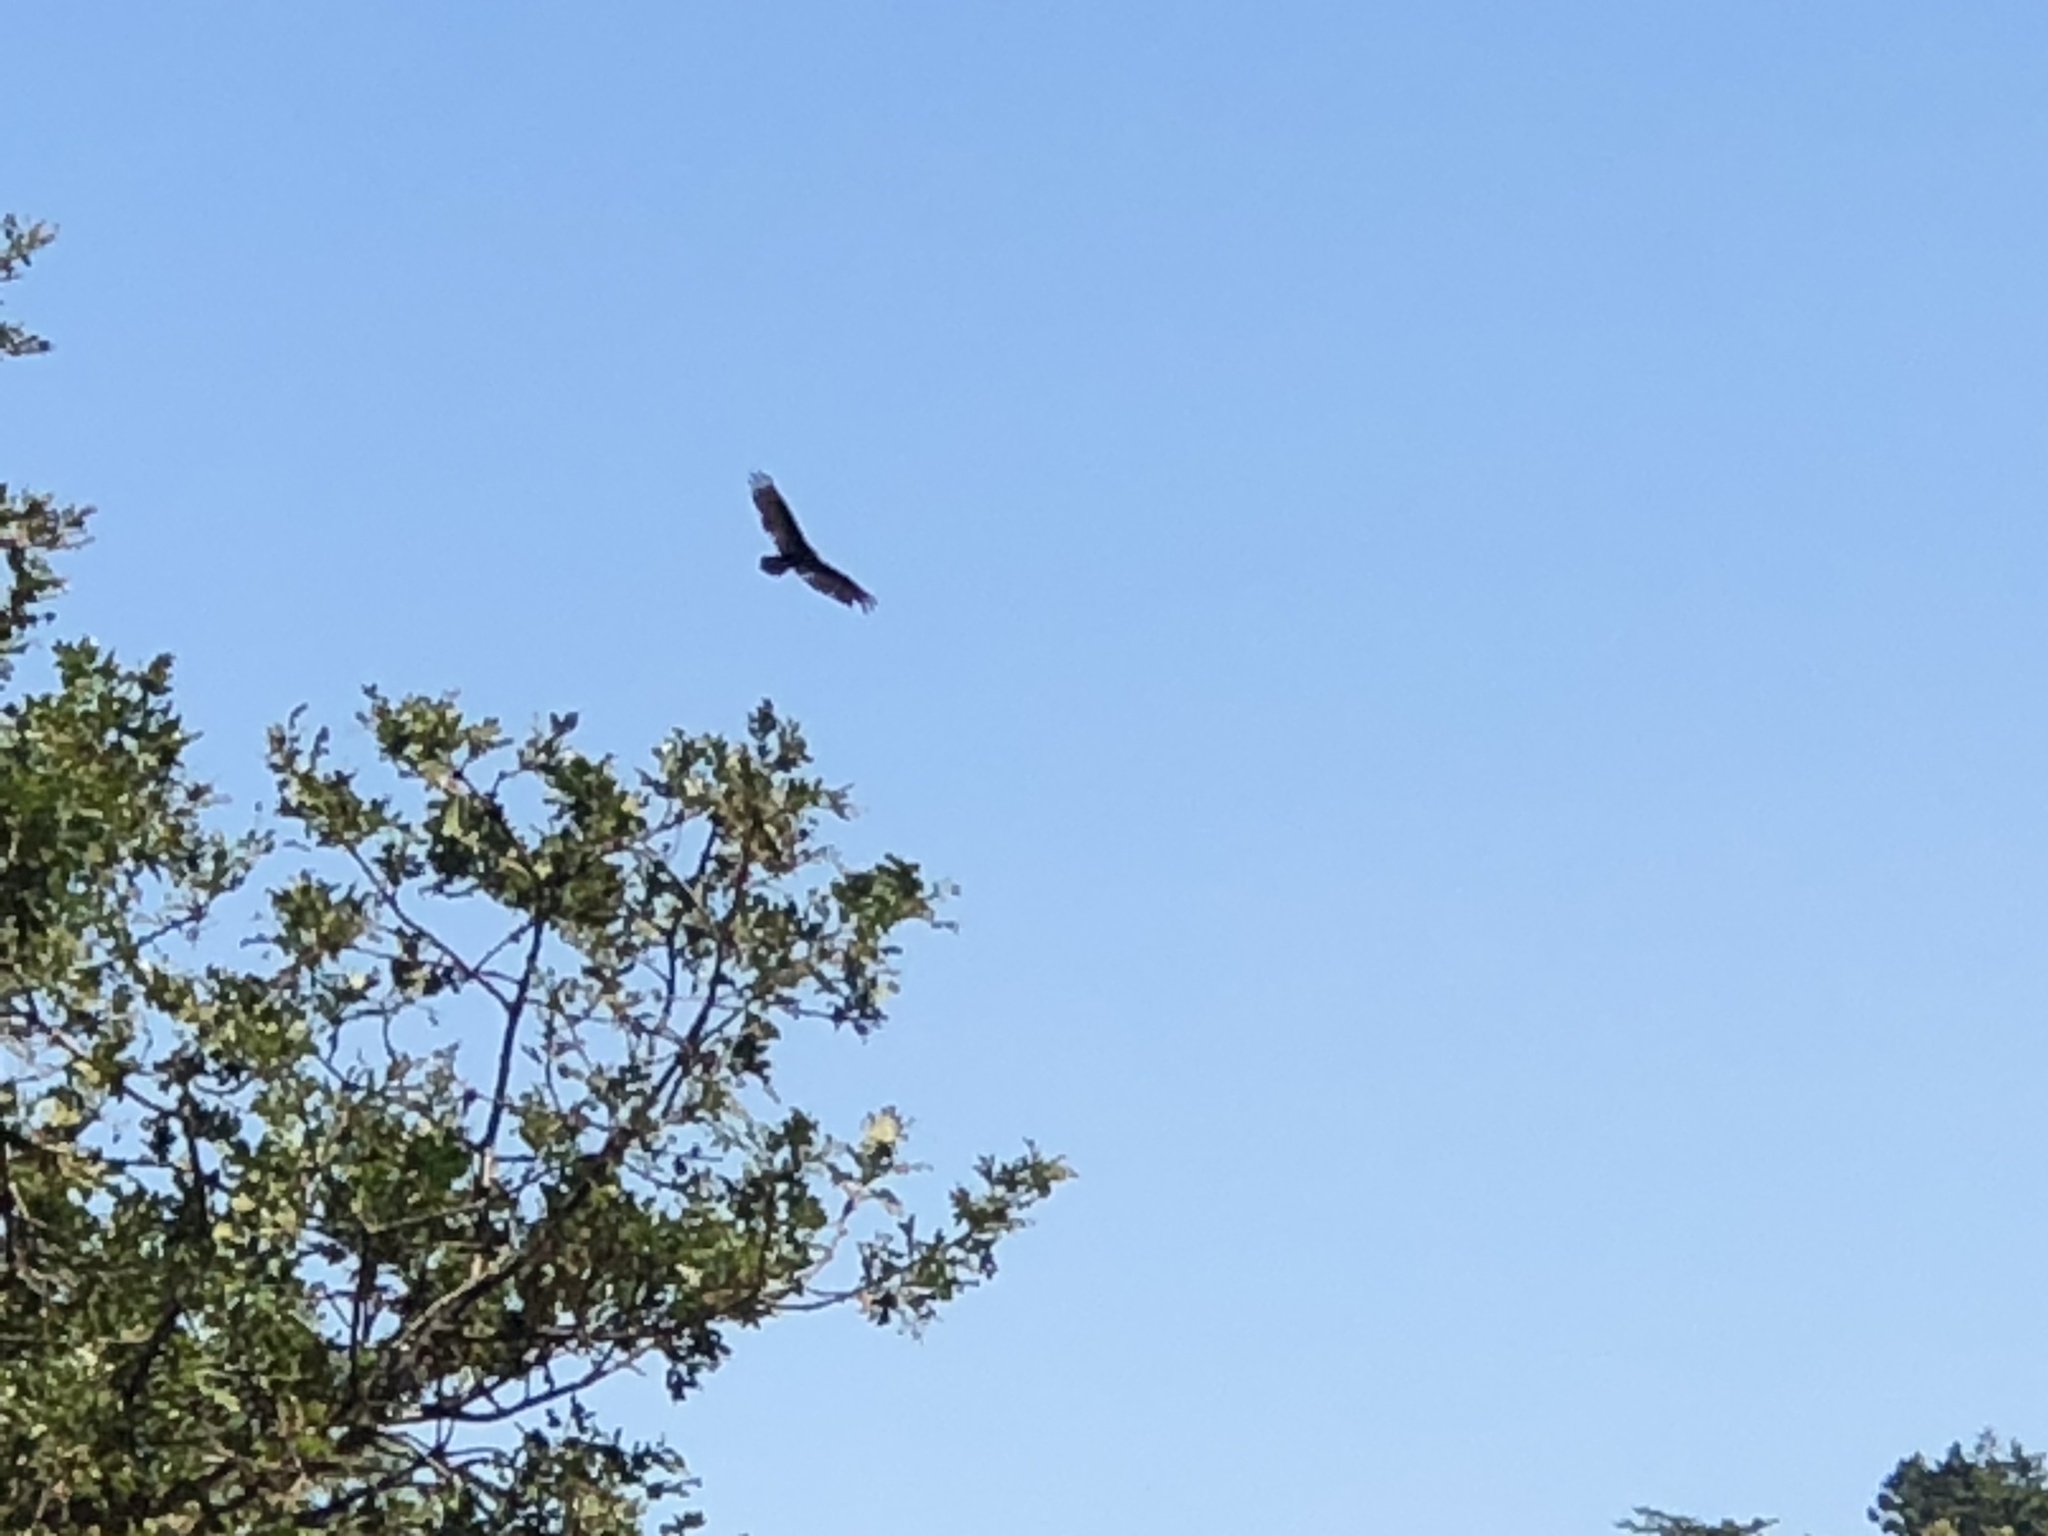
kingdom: Animalia
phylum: Chordata
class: Aves
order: Accipitriformes
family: Cathartidae
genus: Cathartes
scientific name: Cathartes aura
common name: Turkey vulture
